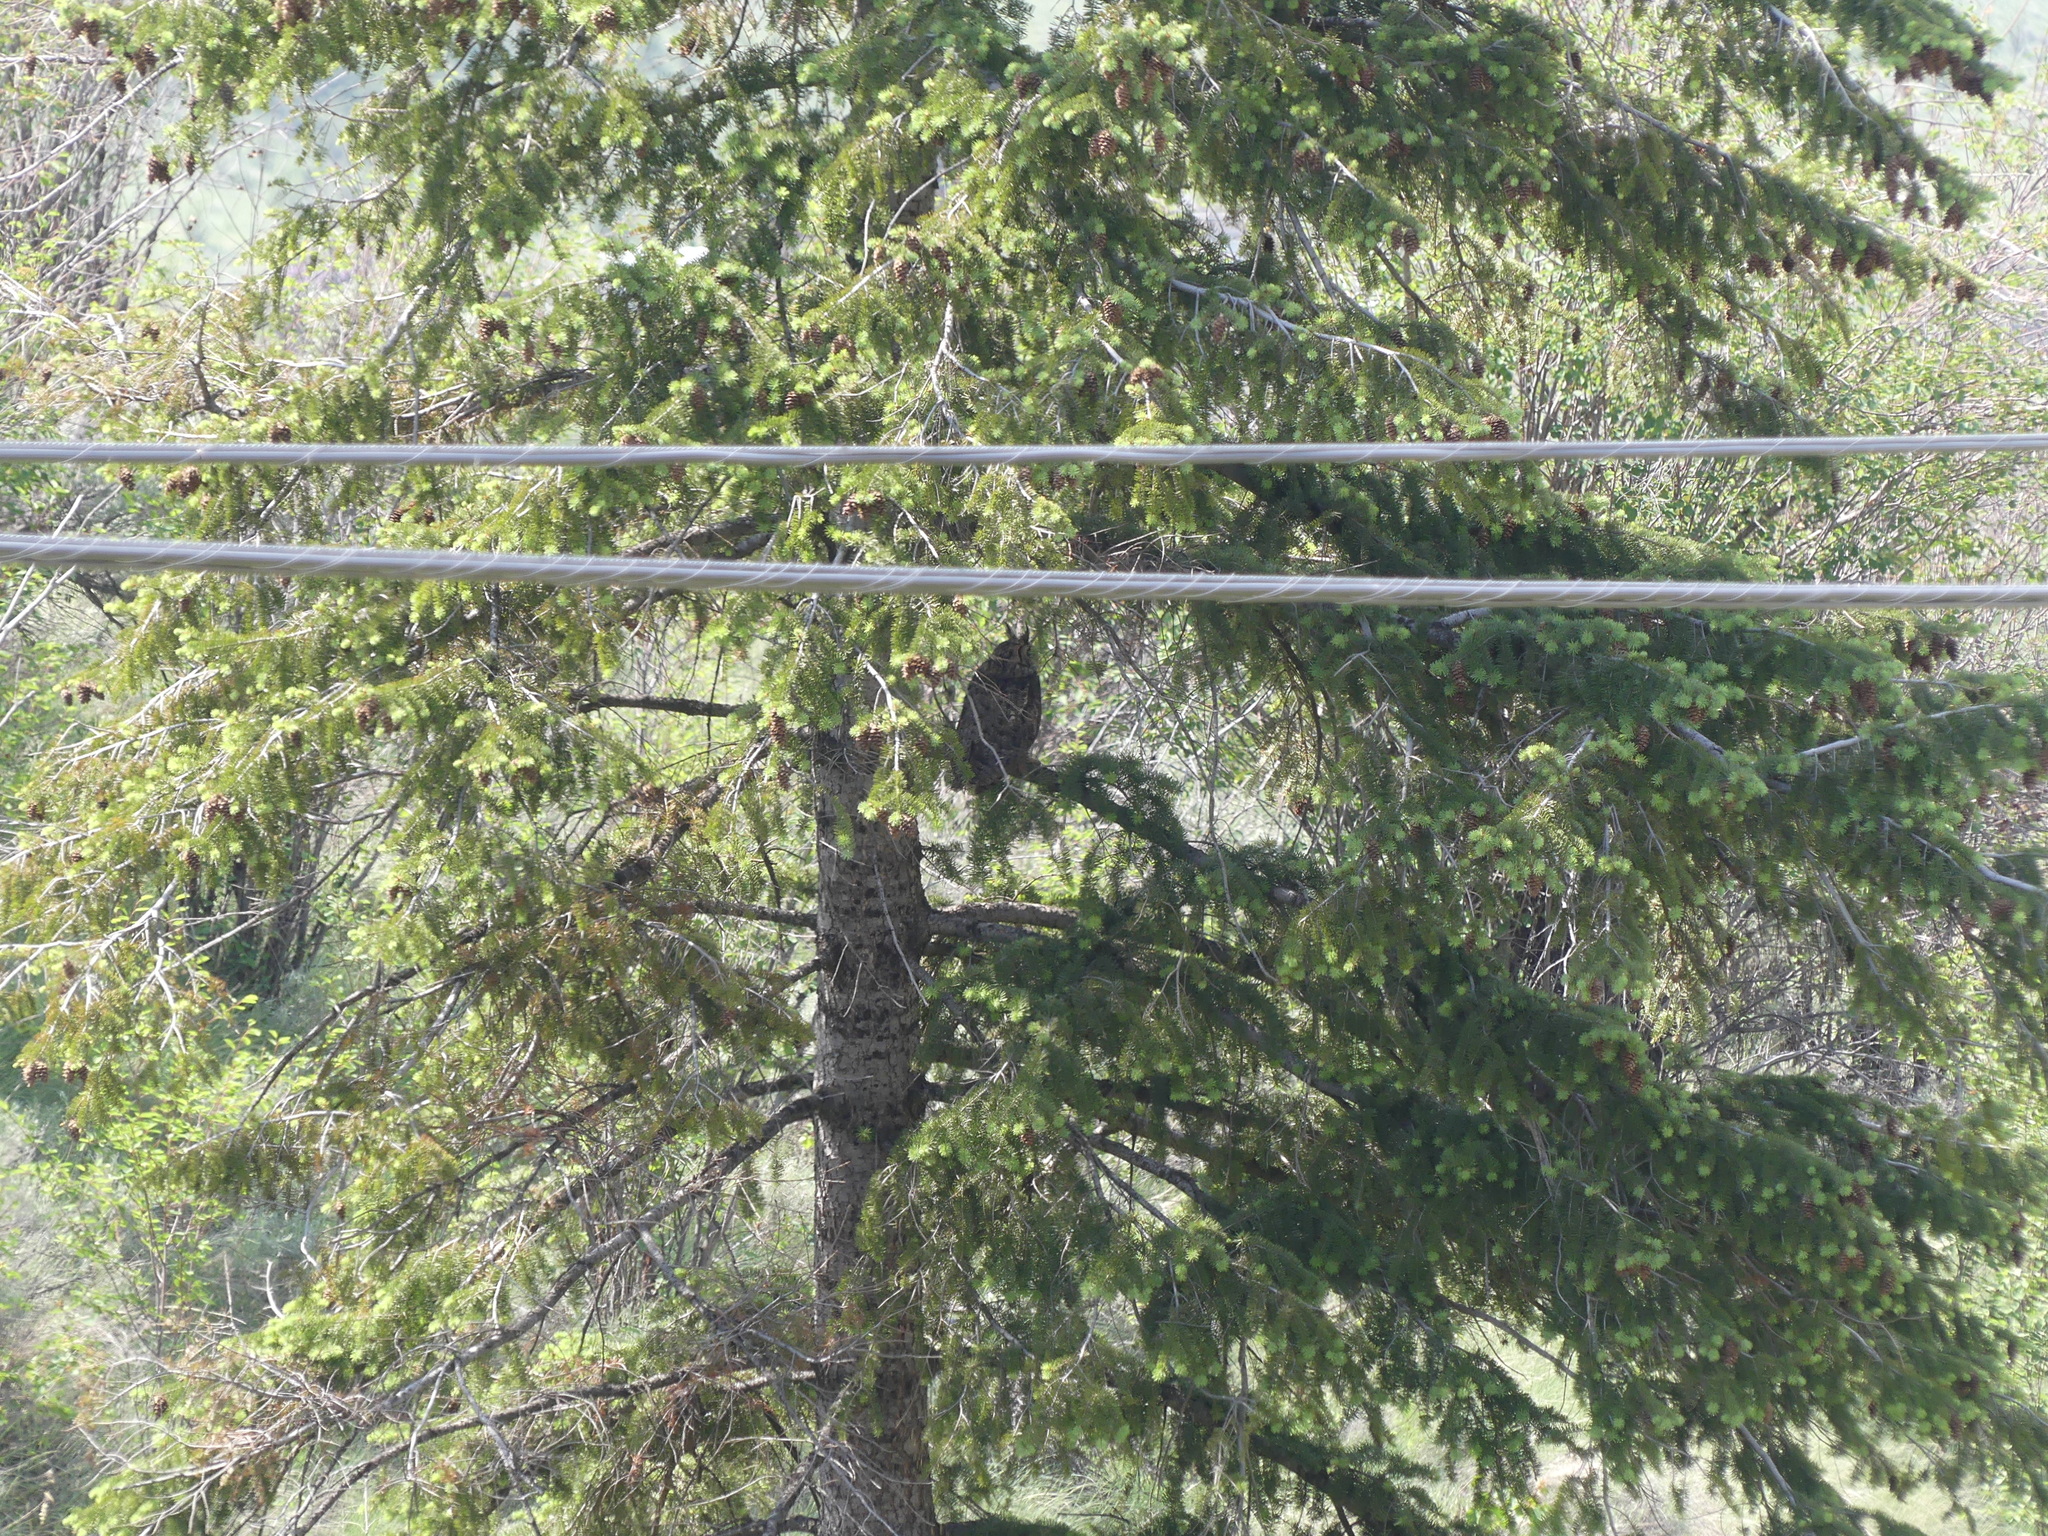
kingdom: Animalia
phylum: Chordata
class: Aves
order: Strigiformes
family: Strigidae
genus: Bubo
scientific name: Bubo virginianus
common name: Great horned owl
